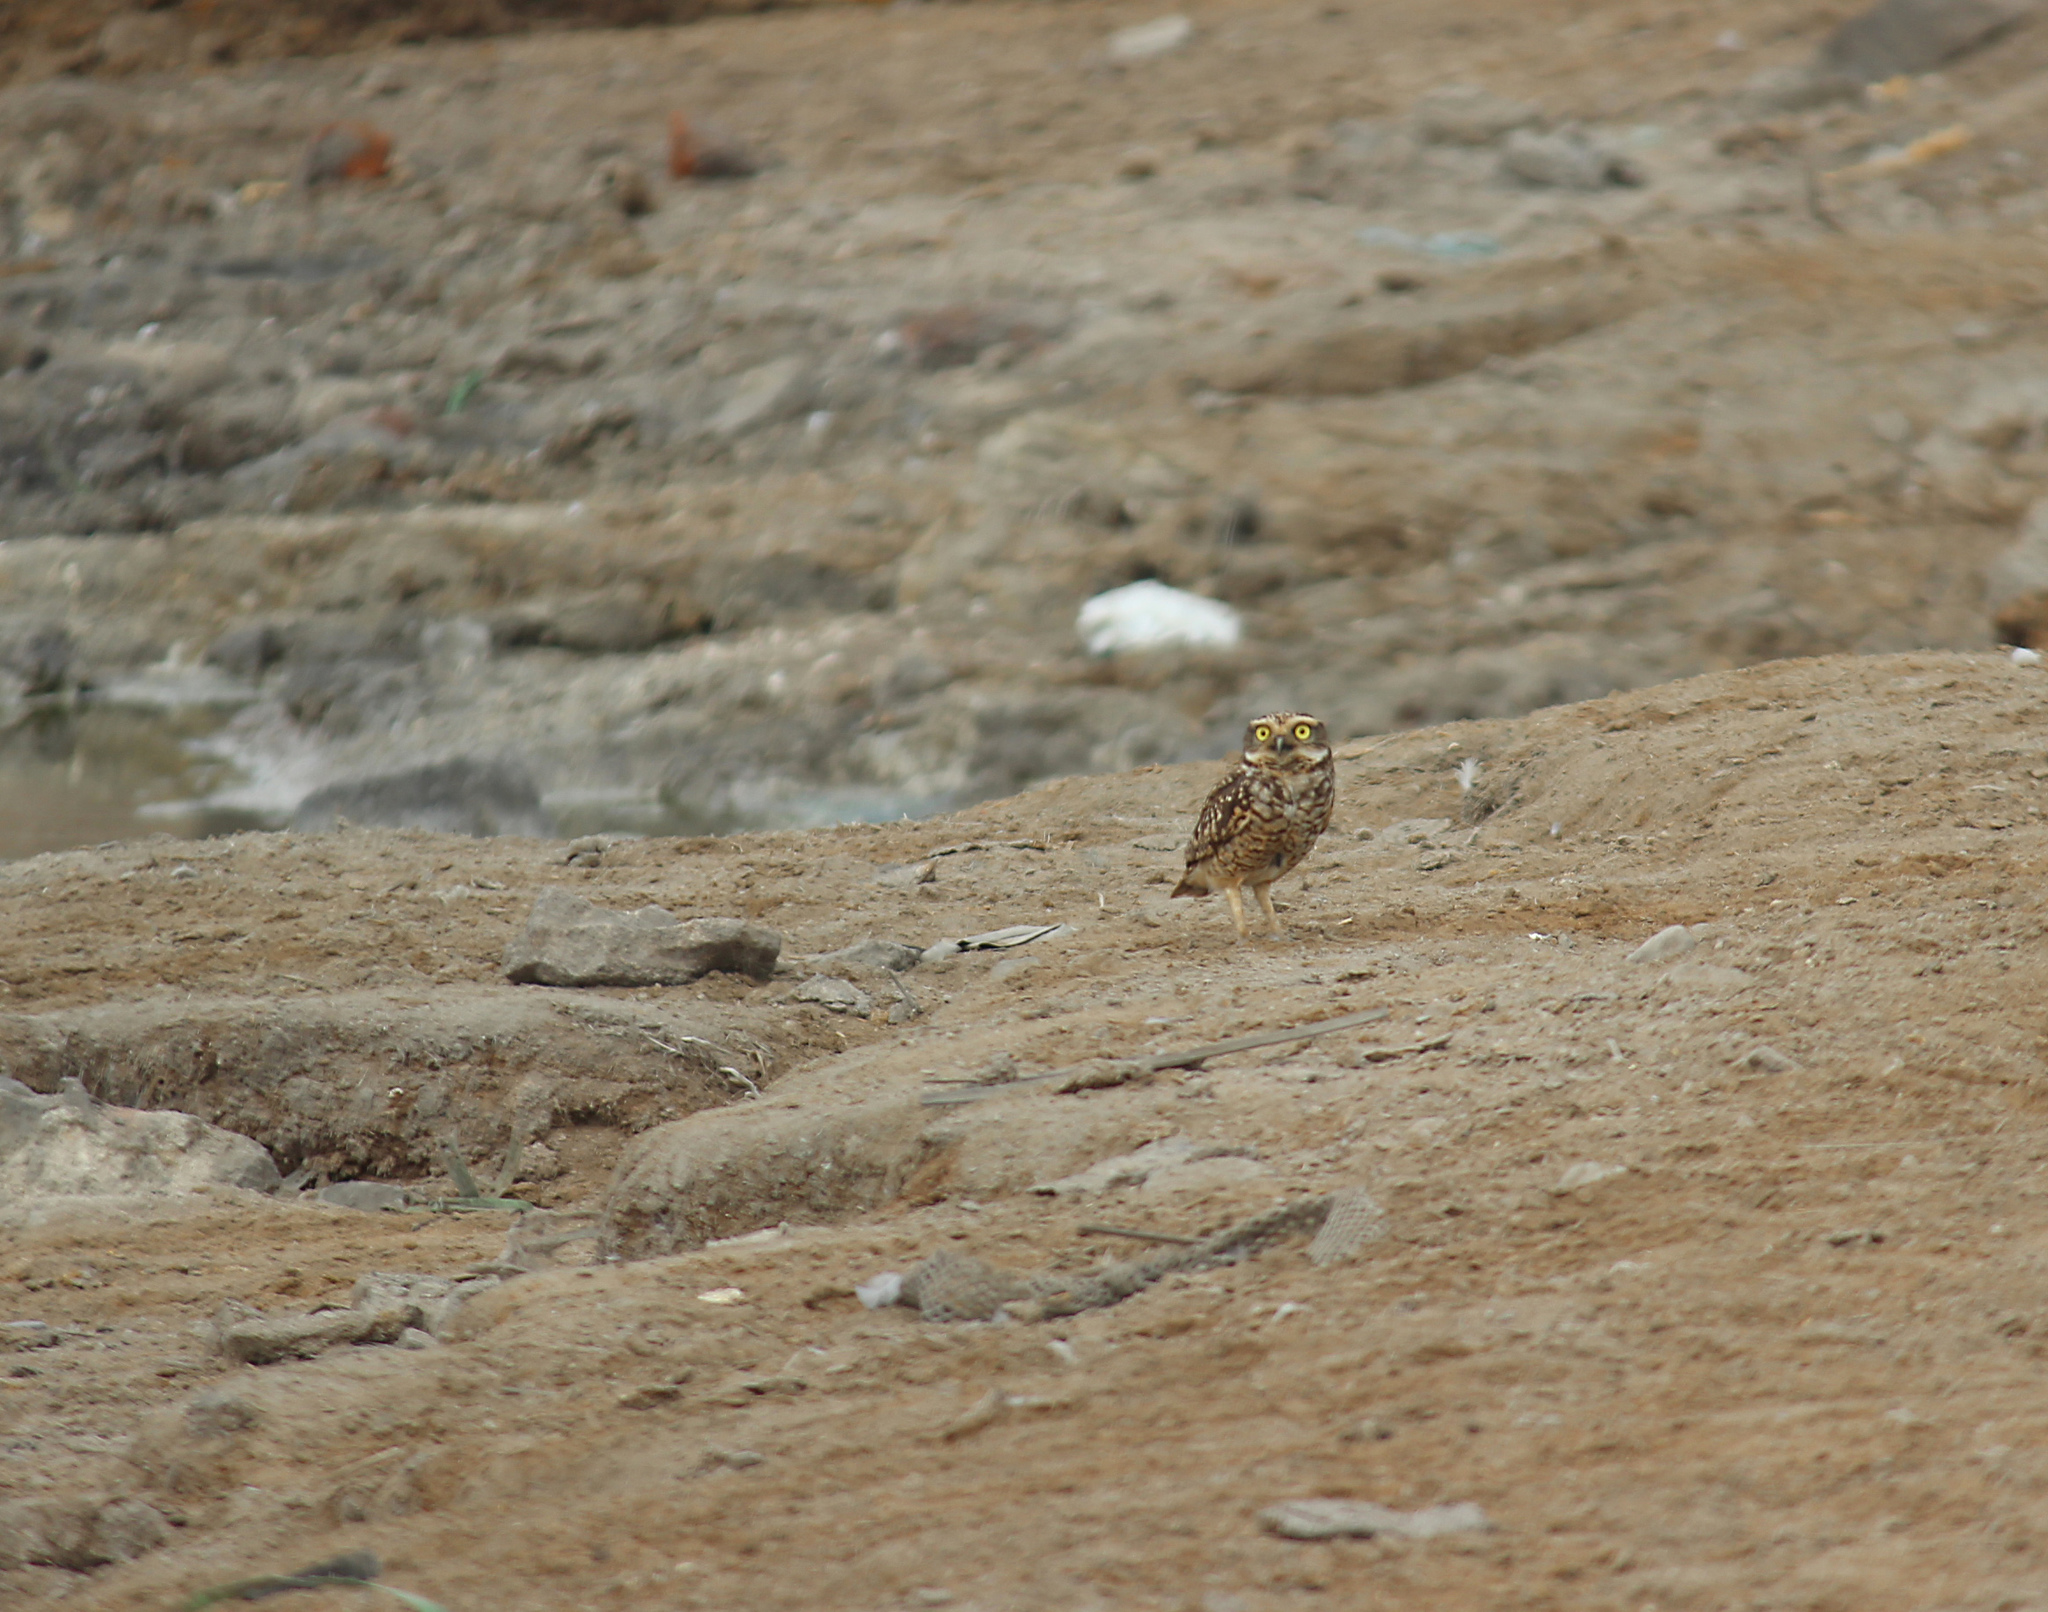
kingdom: Animalia
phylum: Chordata
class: Aves
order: Strigiformes
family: Strigidae
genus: Athene
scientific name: Athene cunicularia
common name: Burrowing owl
